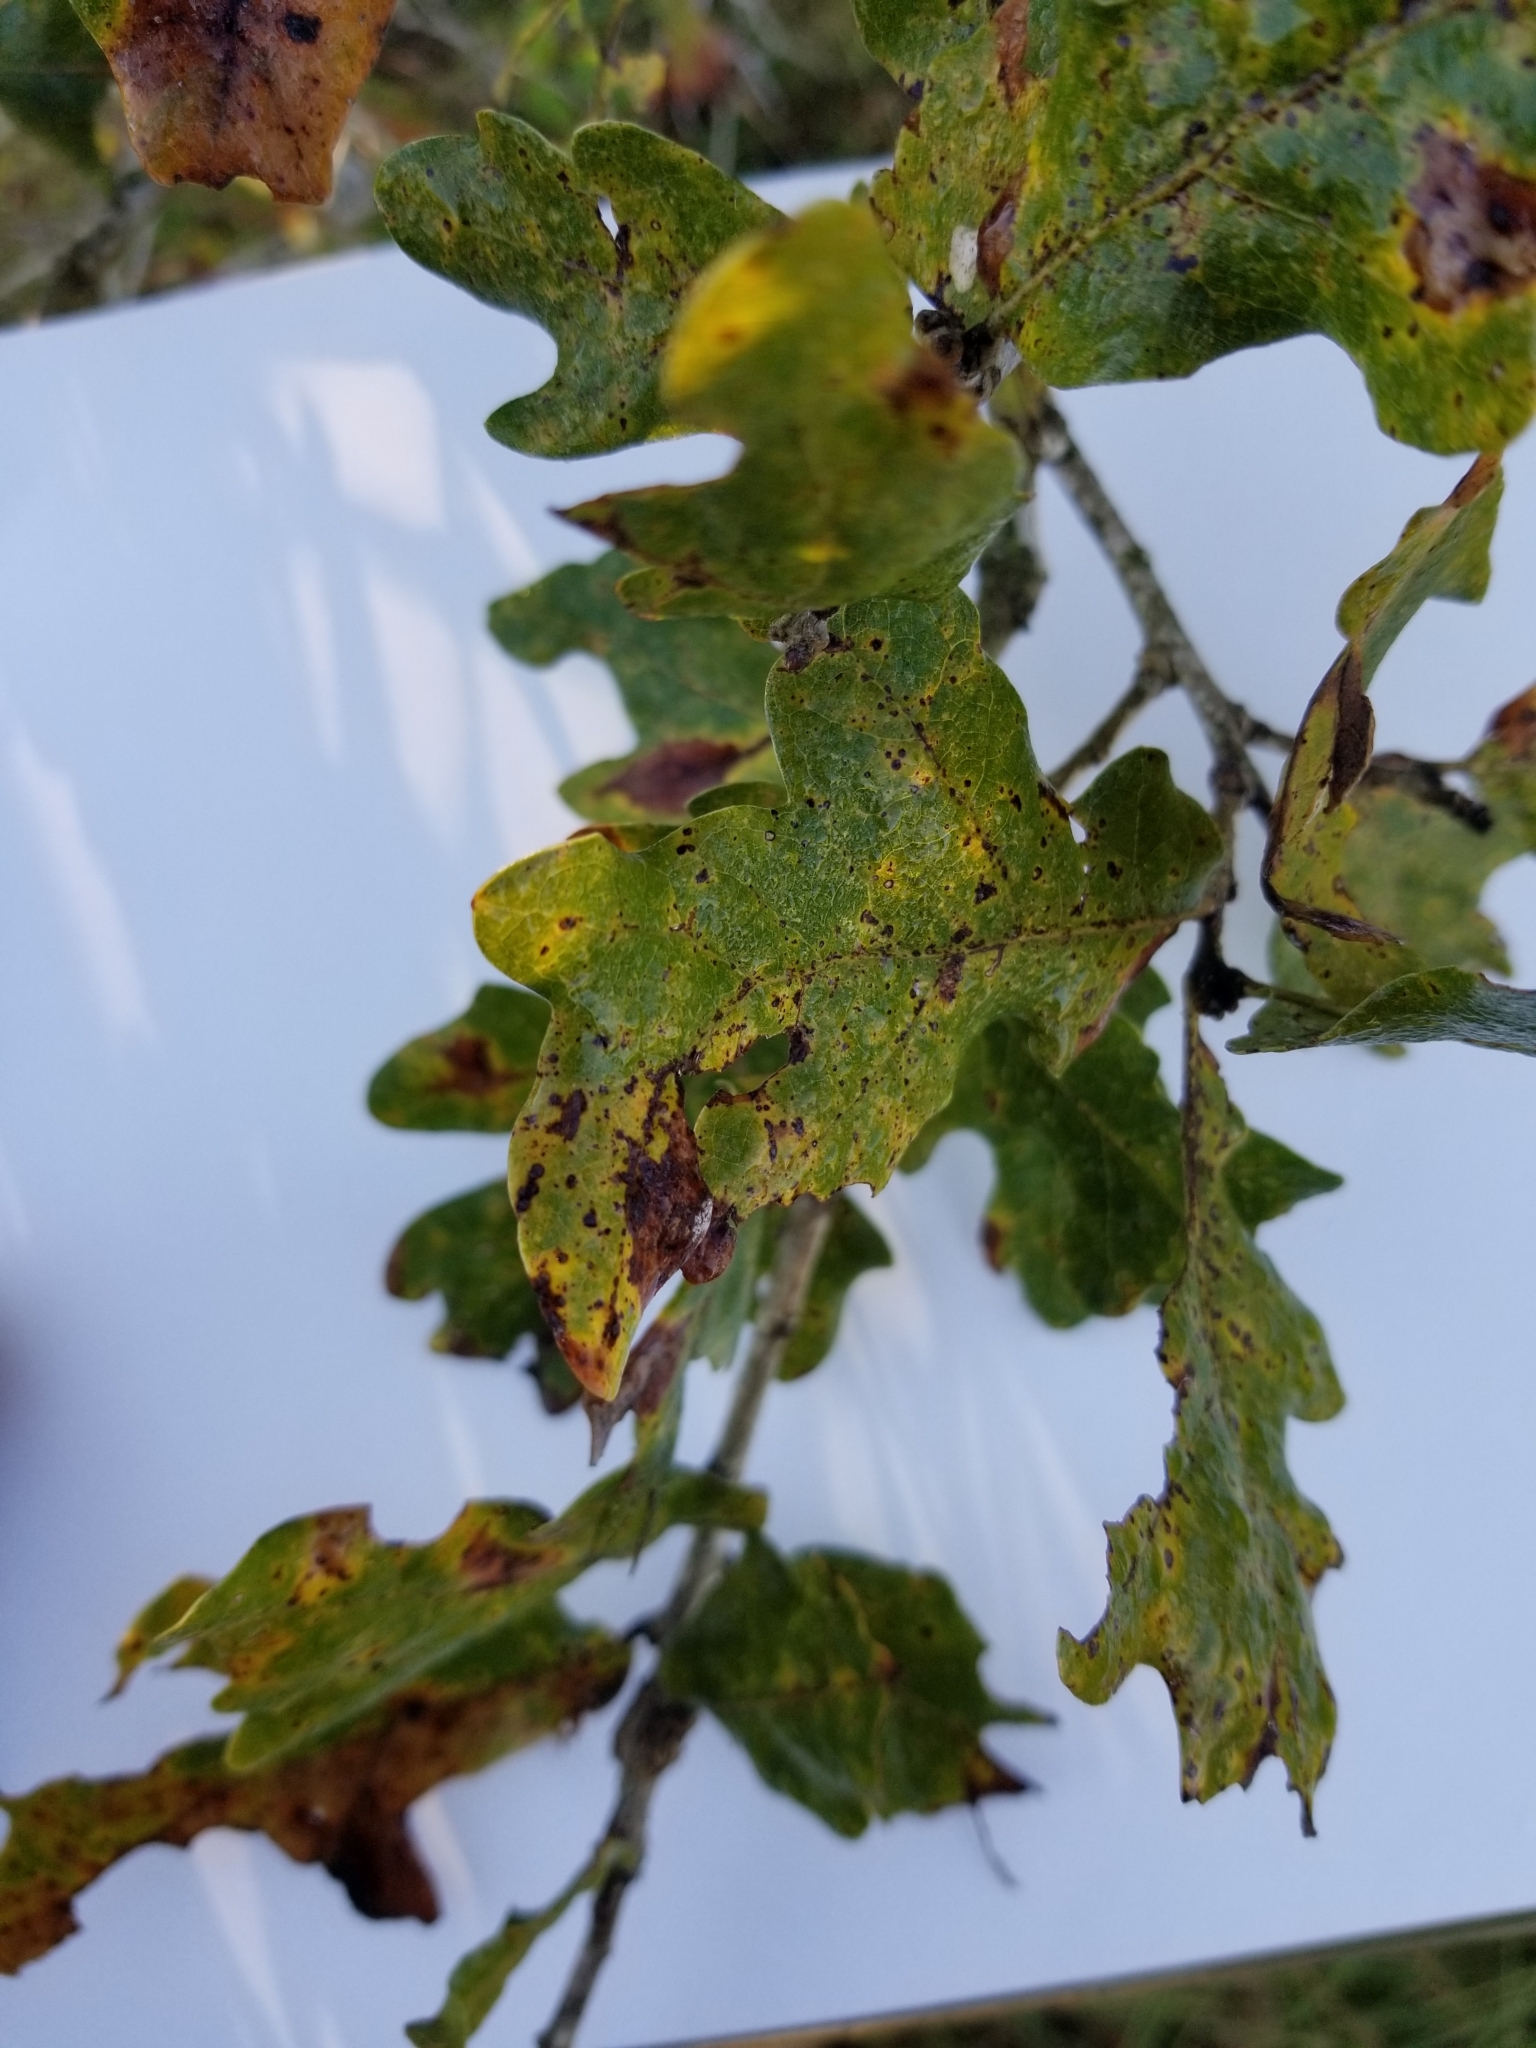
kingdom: Plantae
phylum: Tracheophyta
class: Magnoliopsida
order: Fagales
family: Fagaceae
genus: Quercus
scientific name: Quercus stellata
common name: Post oak
